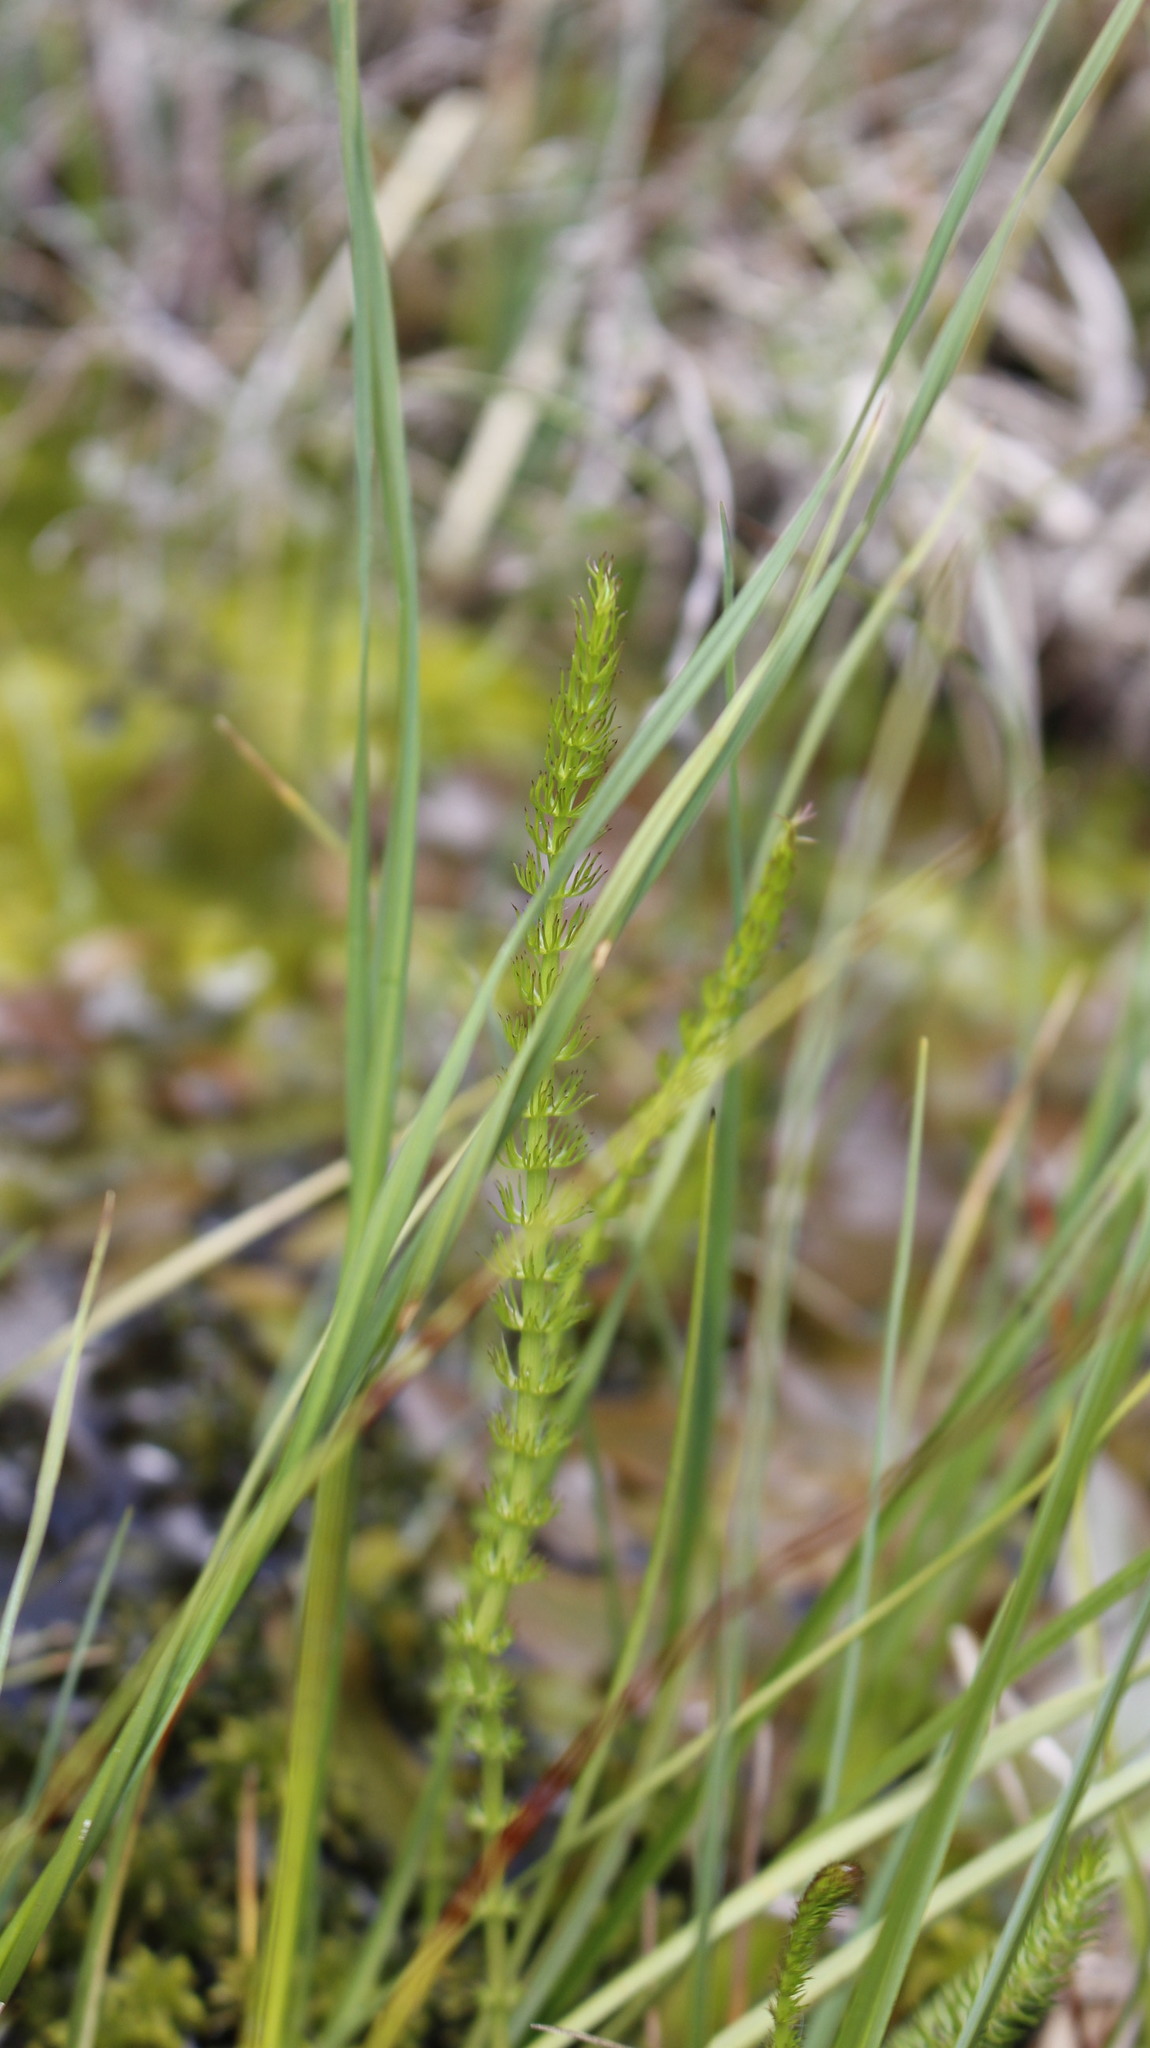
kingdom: Plantae
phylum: Tracheophyta
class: Magnoliopsida
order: Apiales
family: Apiaceae
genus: Trocdaris
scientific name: Trocdaris verticillatum
